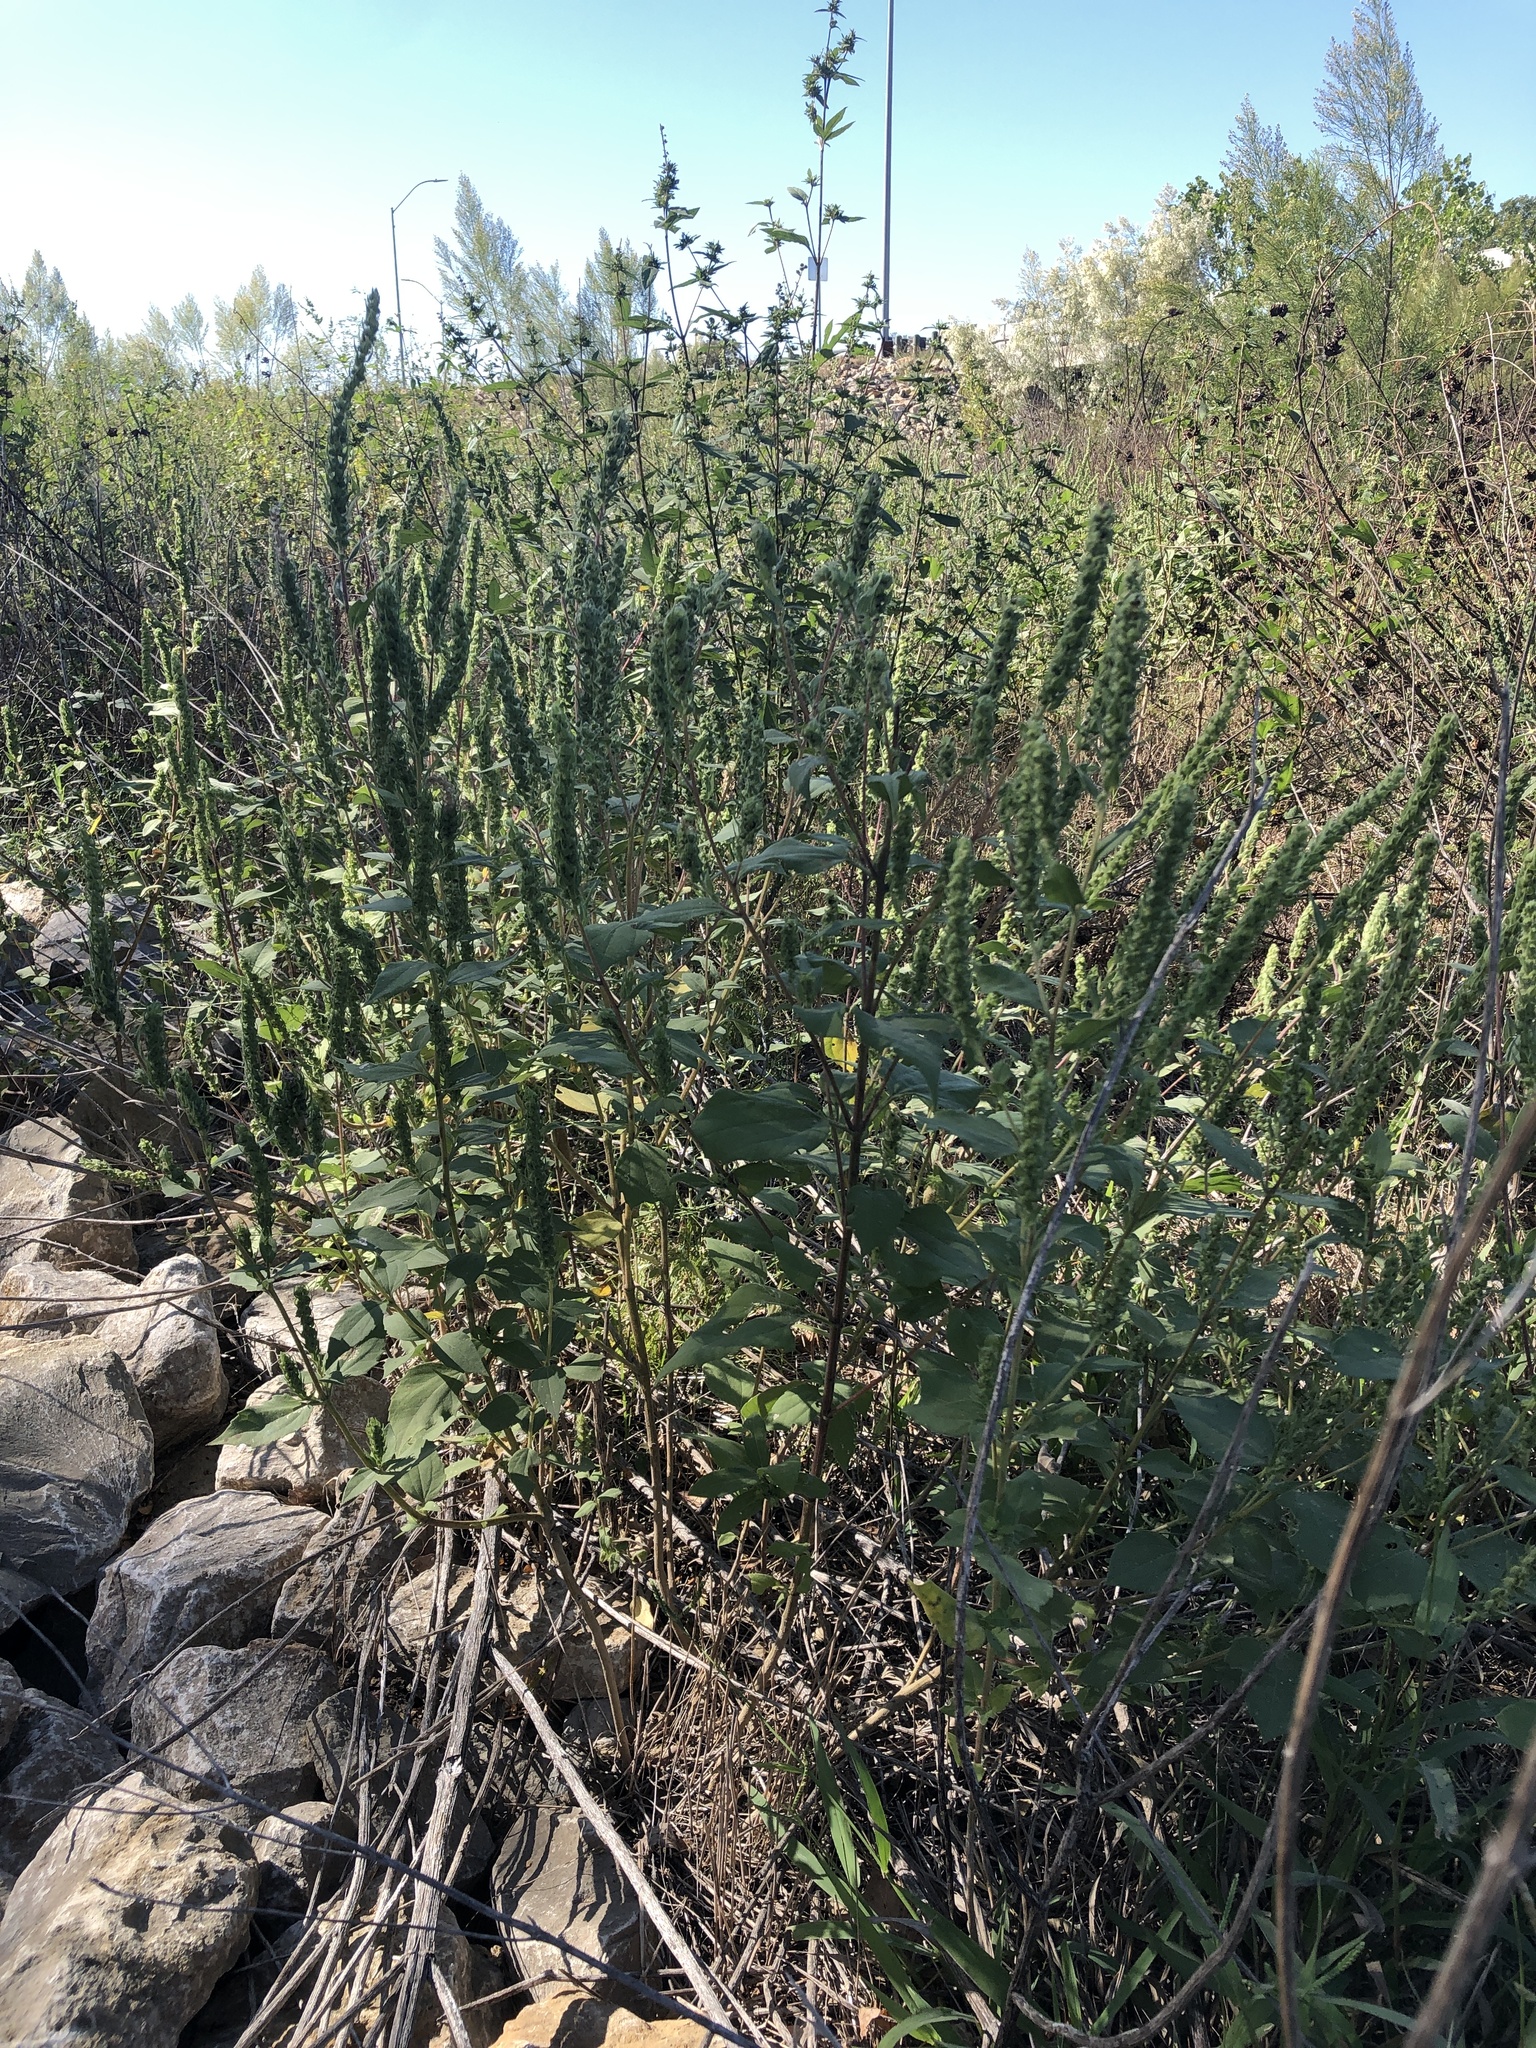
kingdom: Plantae
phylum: Tracheophyta
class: Magnoliopsida
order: Asterales
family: Asteraceae
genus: Iva
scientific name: Iva annua
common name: Marsh-elder
